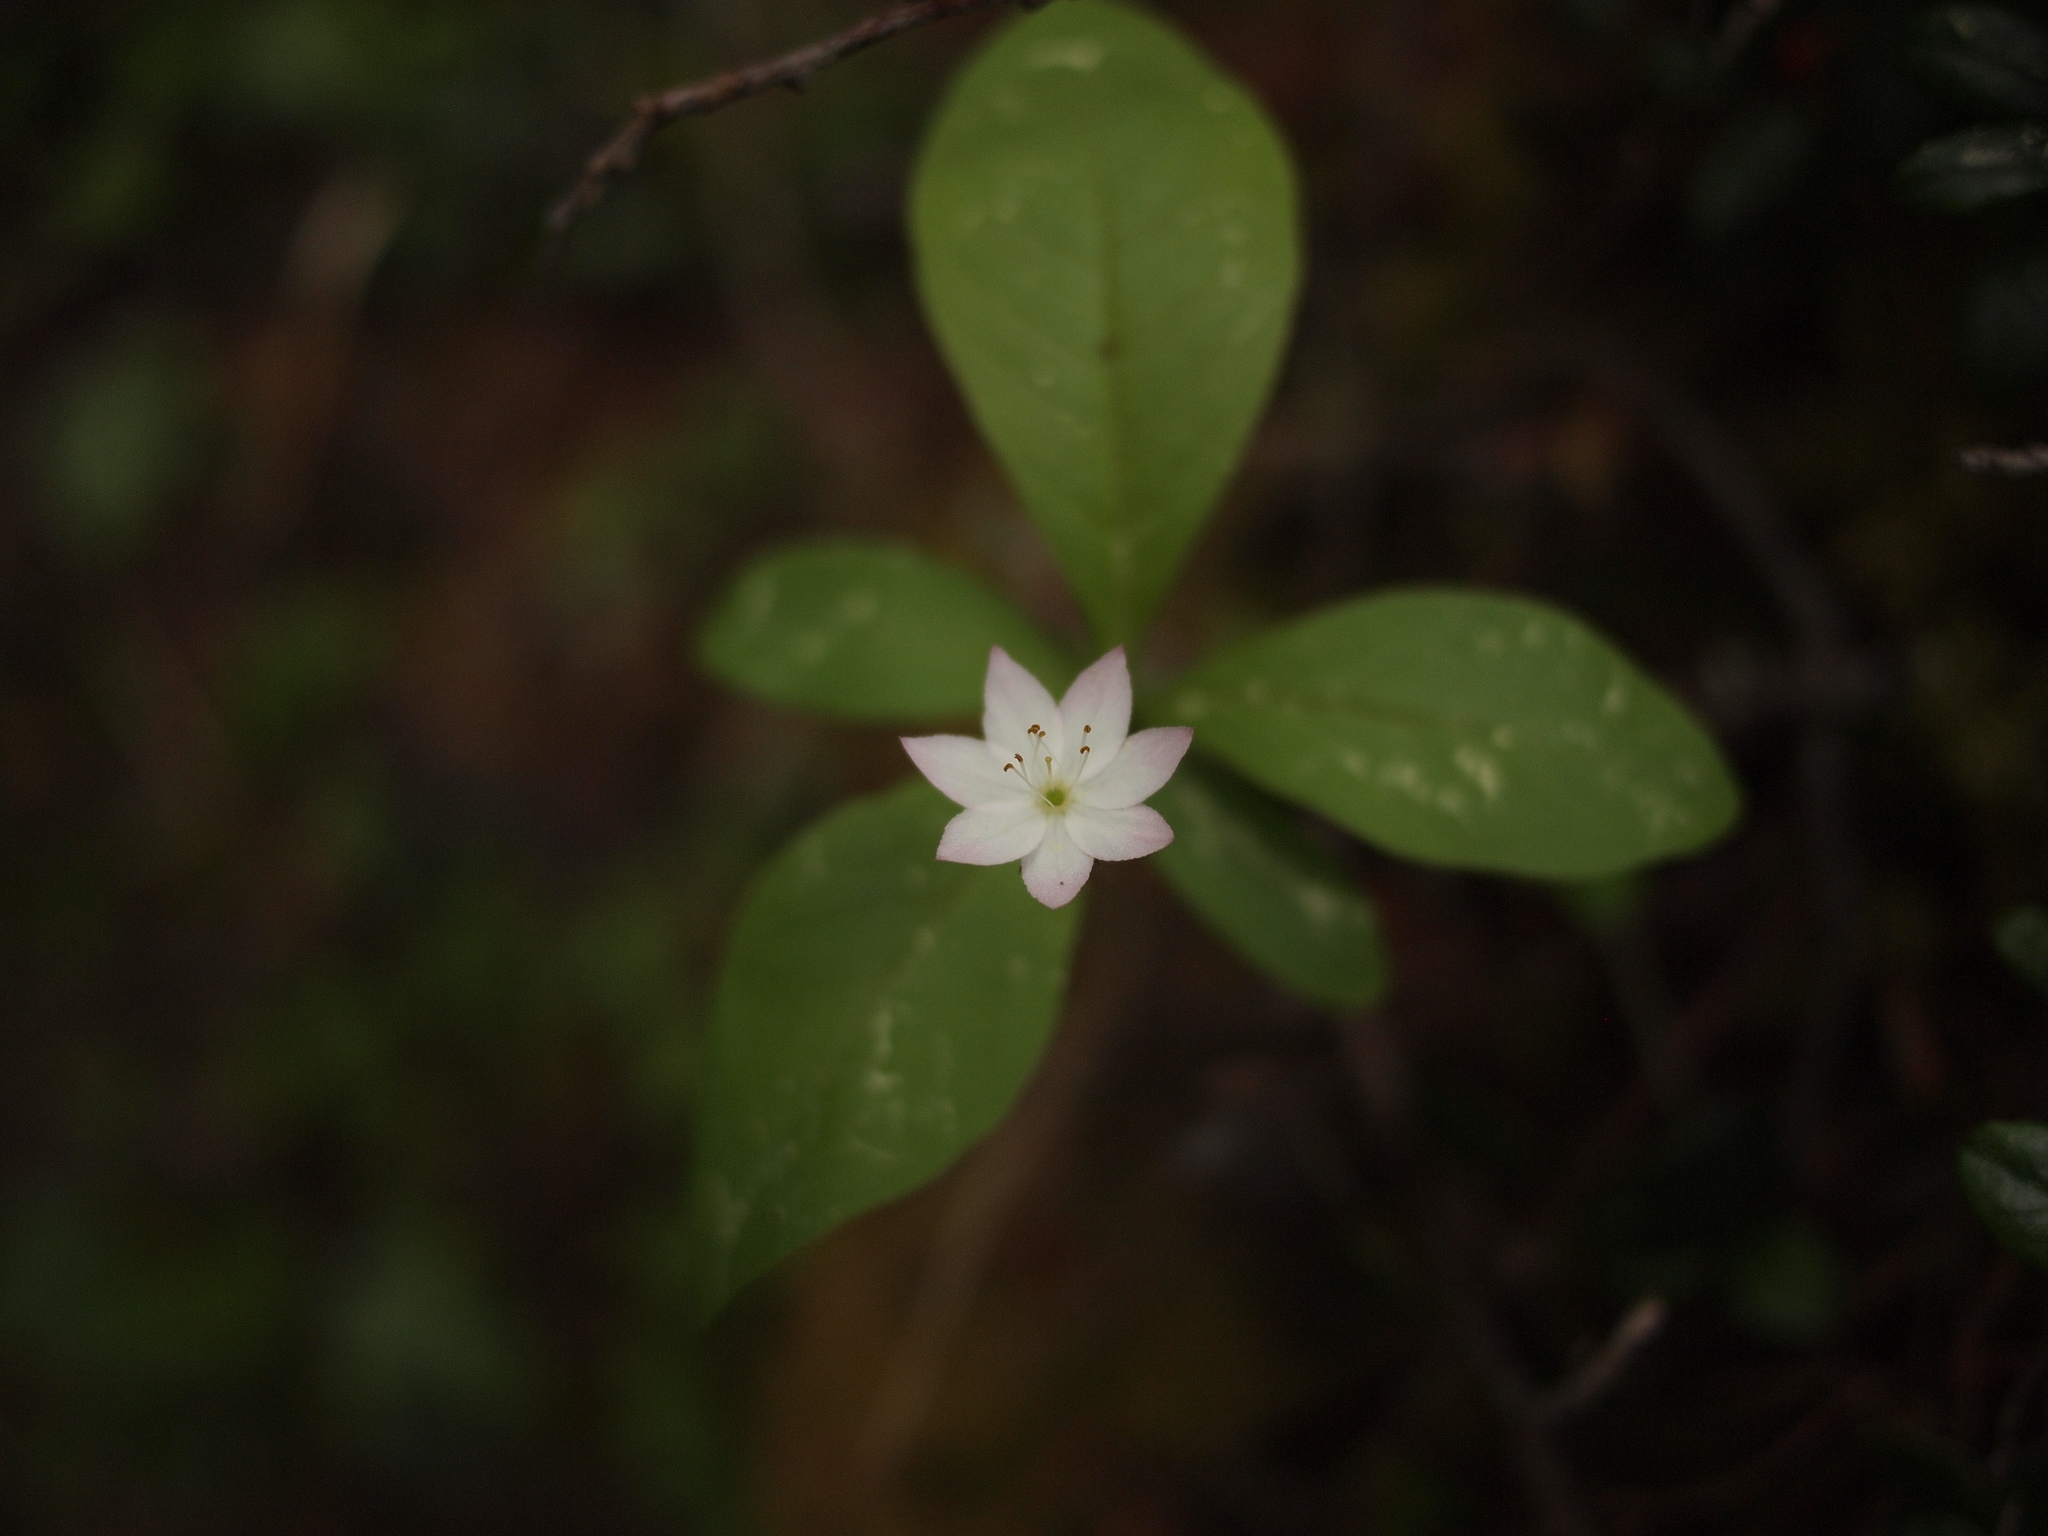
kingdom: Plantae
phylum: Tracheophyta
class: Magnoliopsida
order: Ericales
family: Primulaceae
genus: Lysimachia
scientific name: Lysimachia europaea
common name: Arctic starflower
